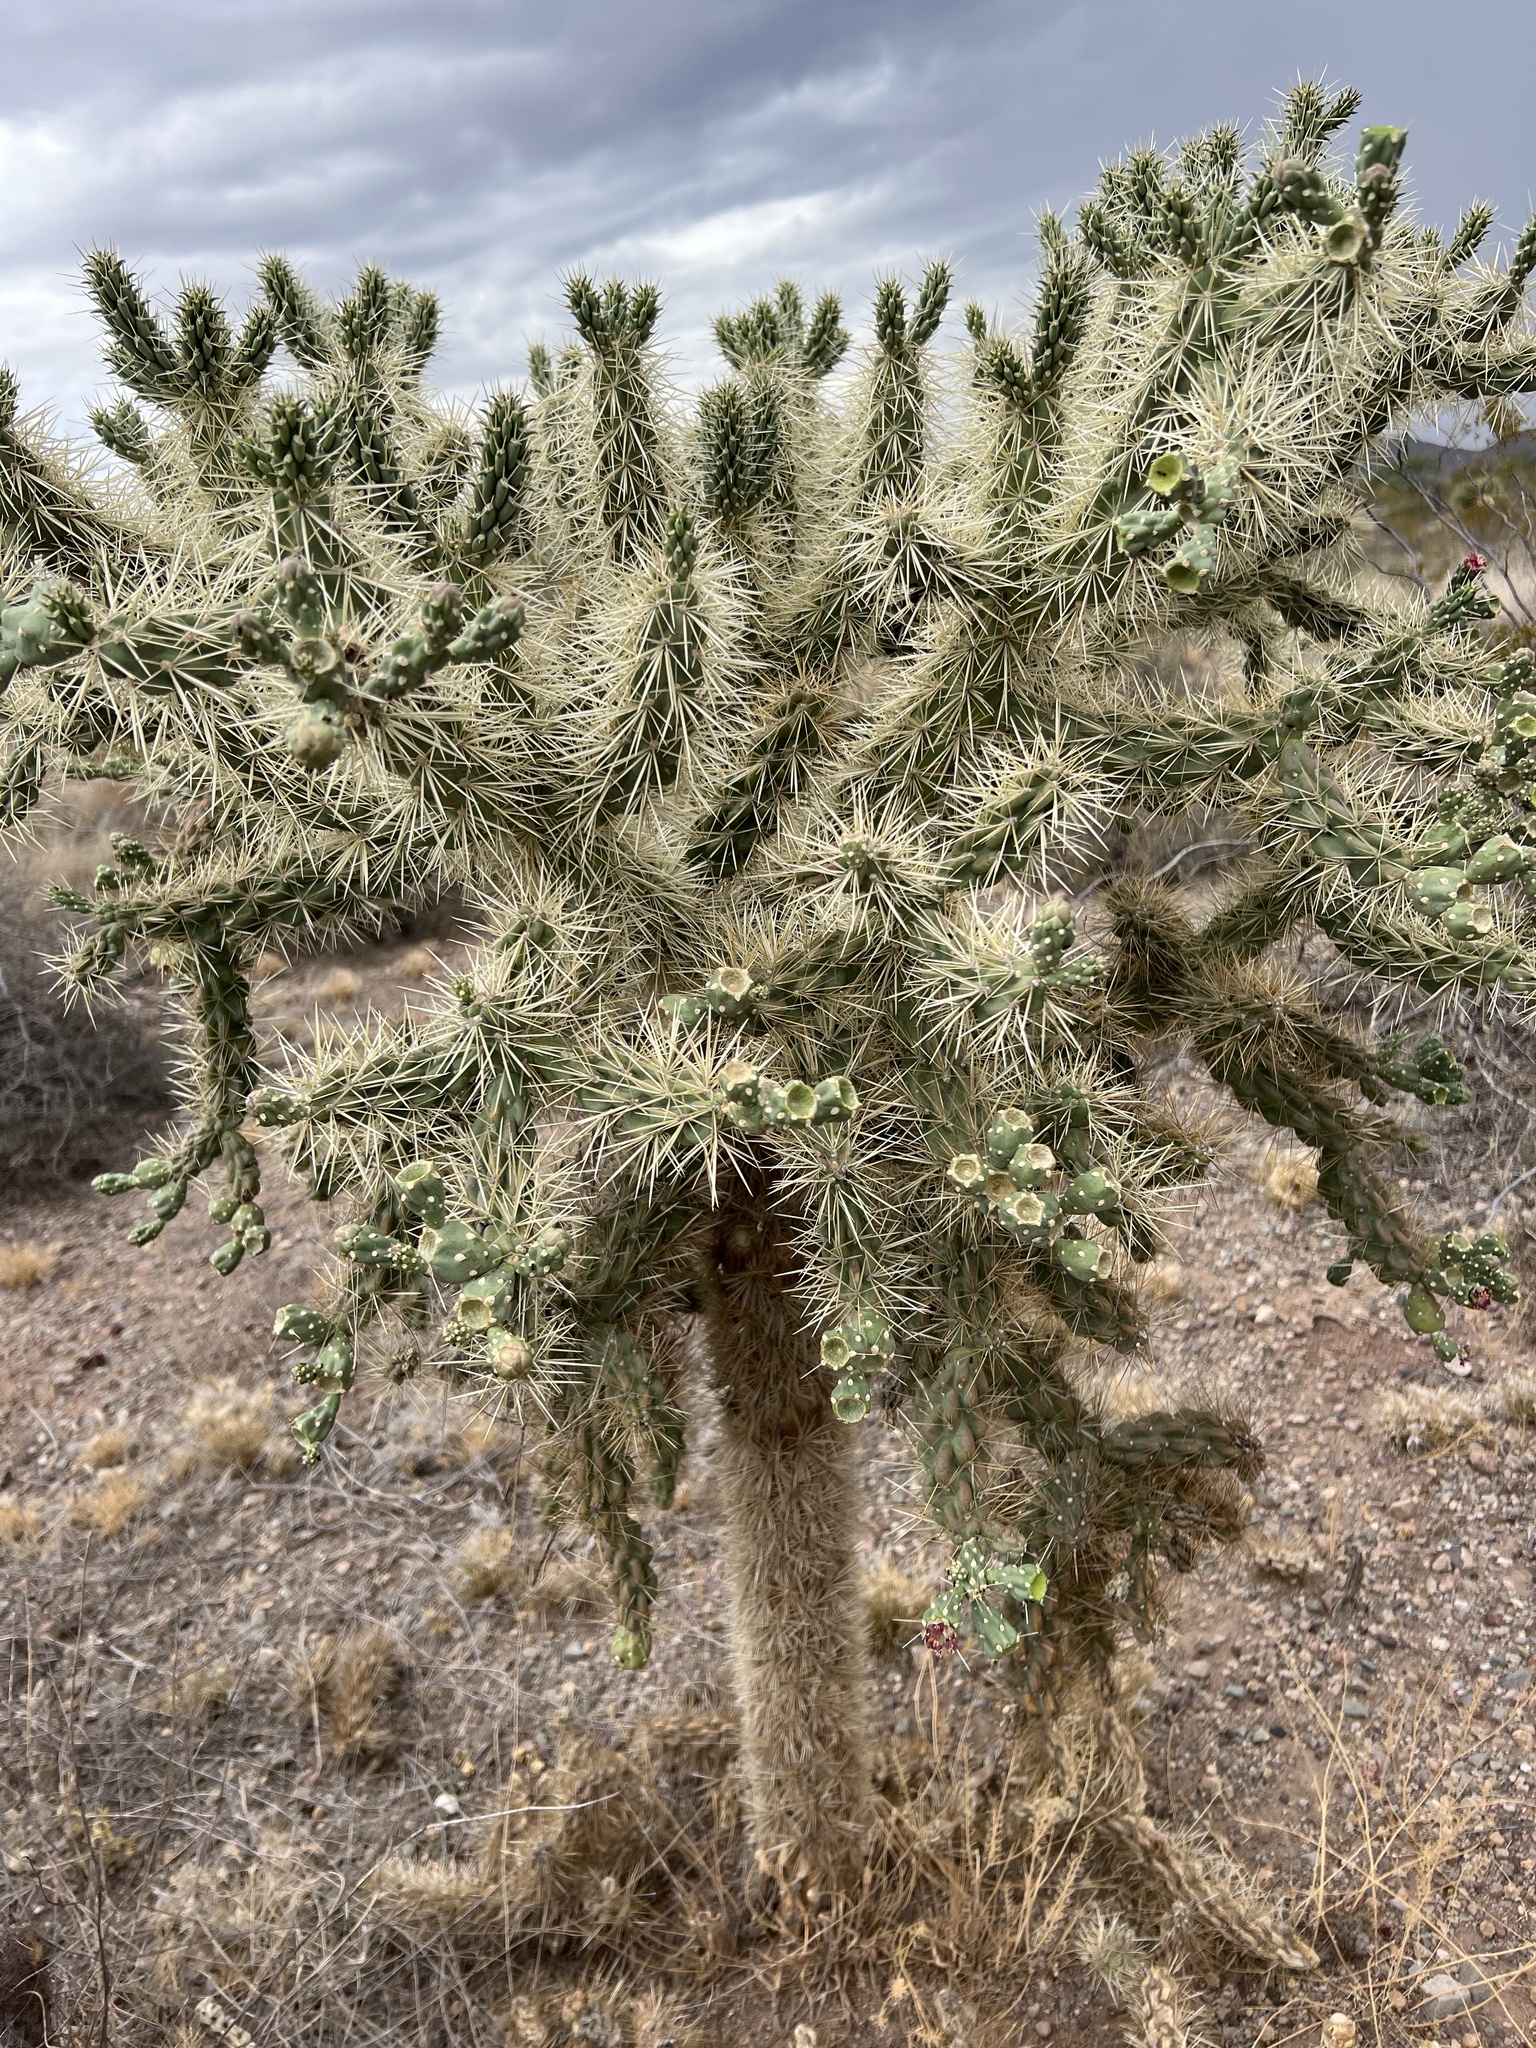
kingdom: Plantae
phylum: Tracheophyta
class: Magnoliopsida
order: Caryophyllales
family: Cactaceae
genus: Cylindropuntia
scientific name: Cylindropuntia fulgida
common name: Jumping cholla
